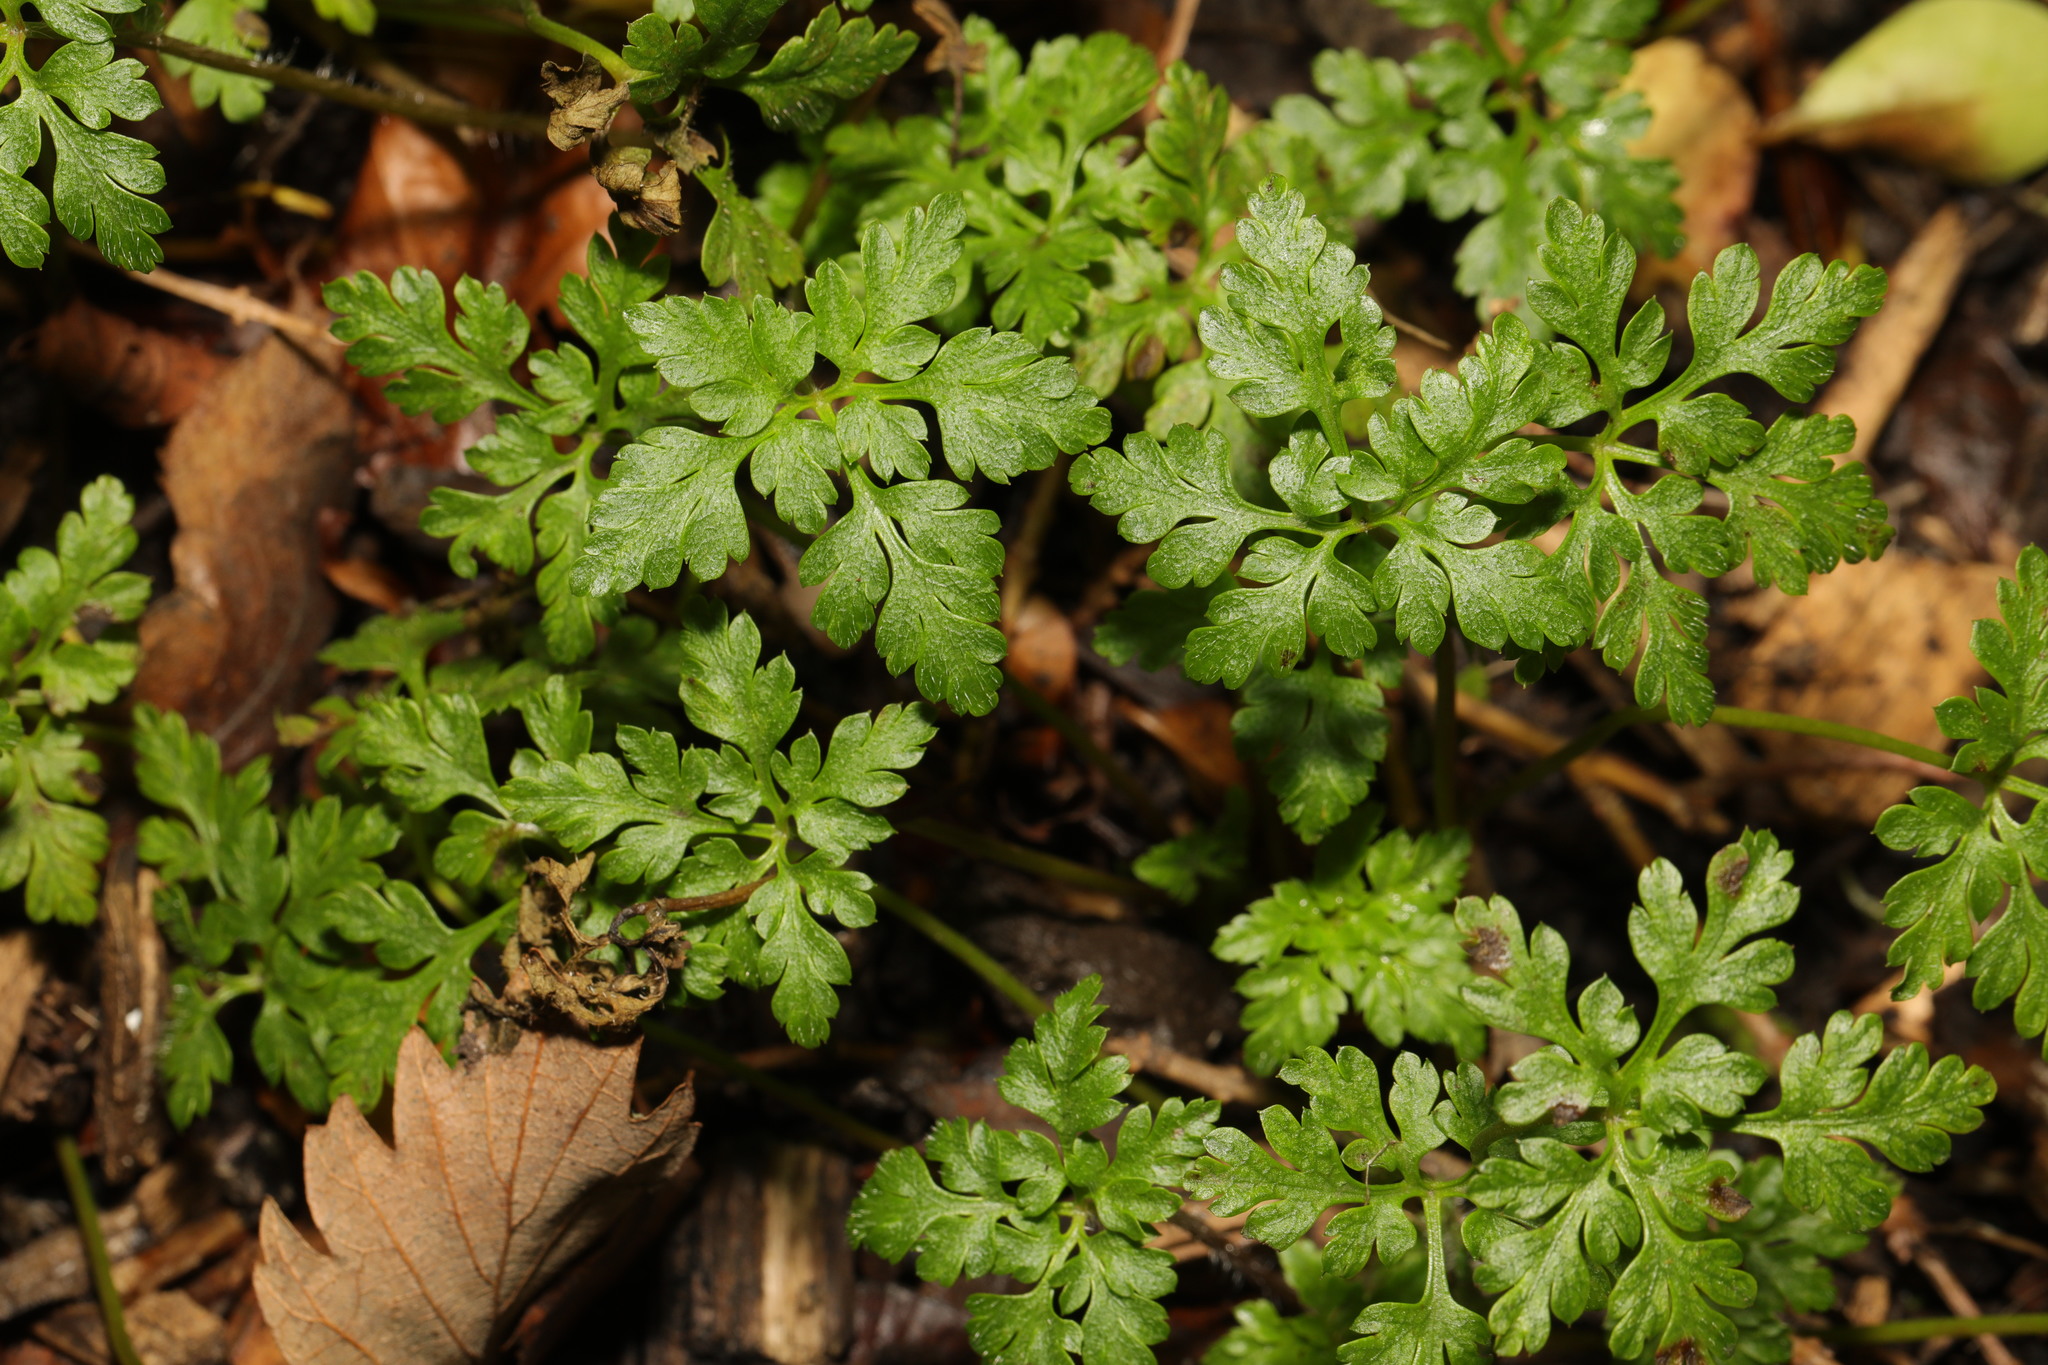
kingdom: Plantae
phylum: Tracheophyta
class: Magnoliopsida
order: Geraniales
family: Geraniaceae
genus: Geranium
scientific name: Geranium robertianum
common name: Herb-robert
